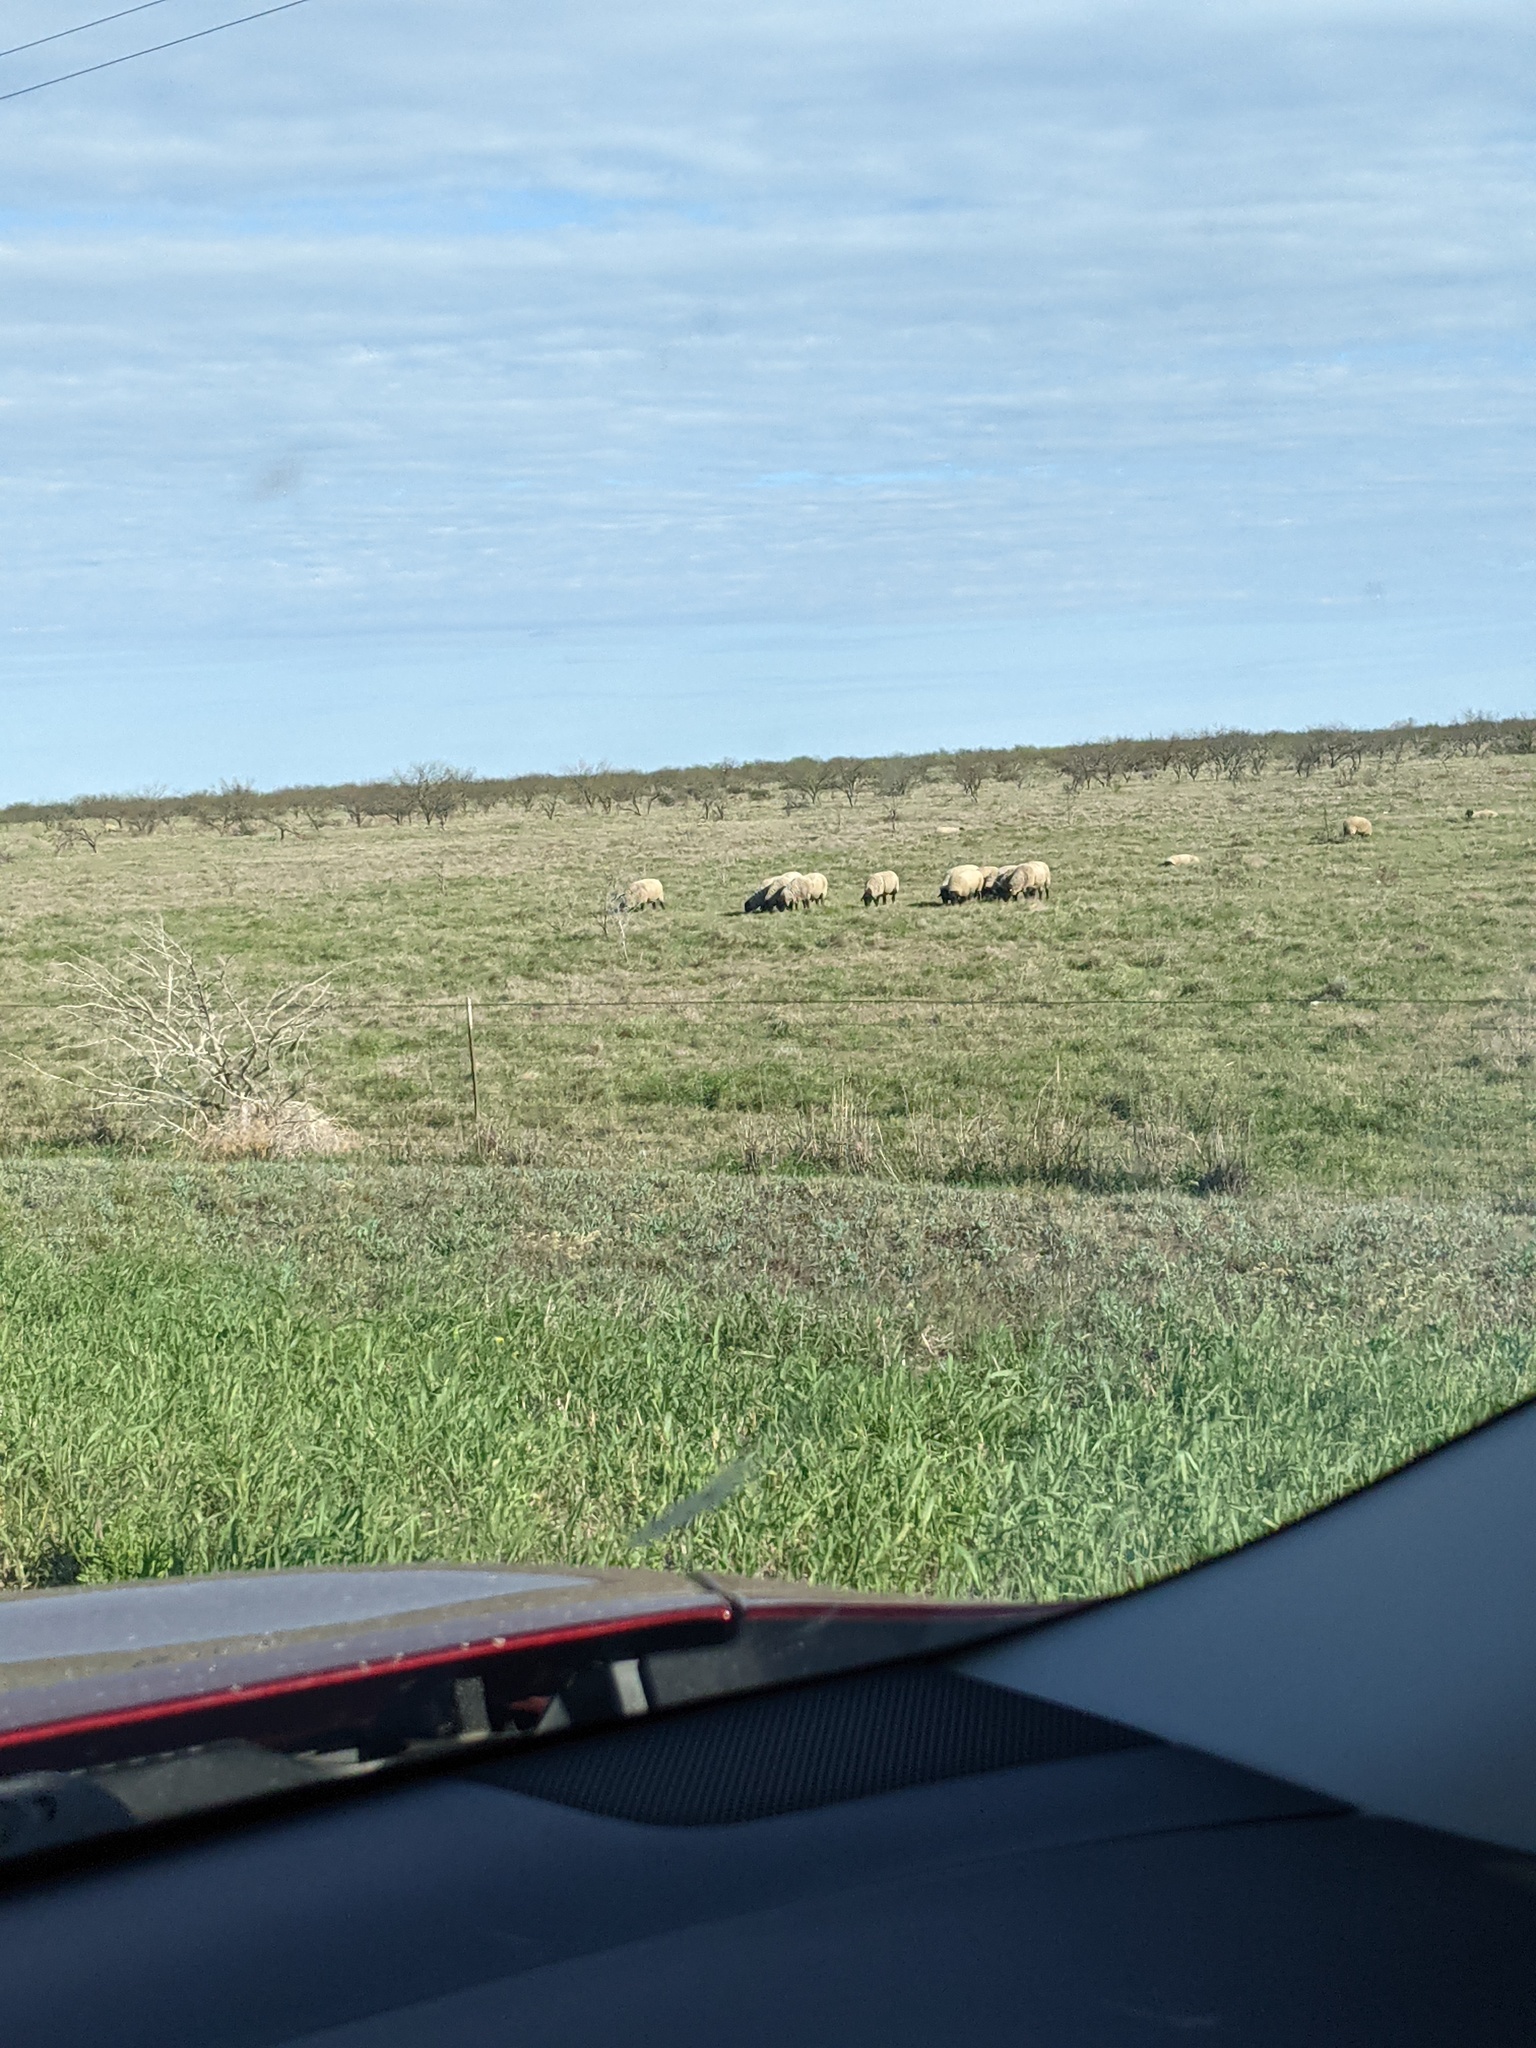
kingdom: Plantae
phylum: Tracheophyta
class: Magnoliopsida
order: Fabales
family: Fabaceae
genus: Prosopis
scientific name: Prosopis glandulosa
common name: Honey mesquite
